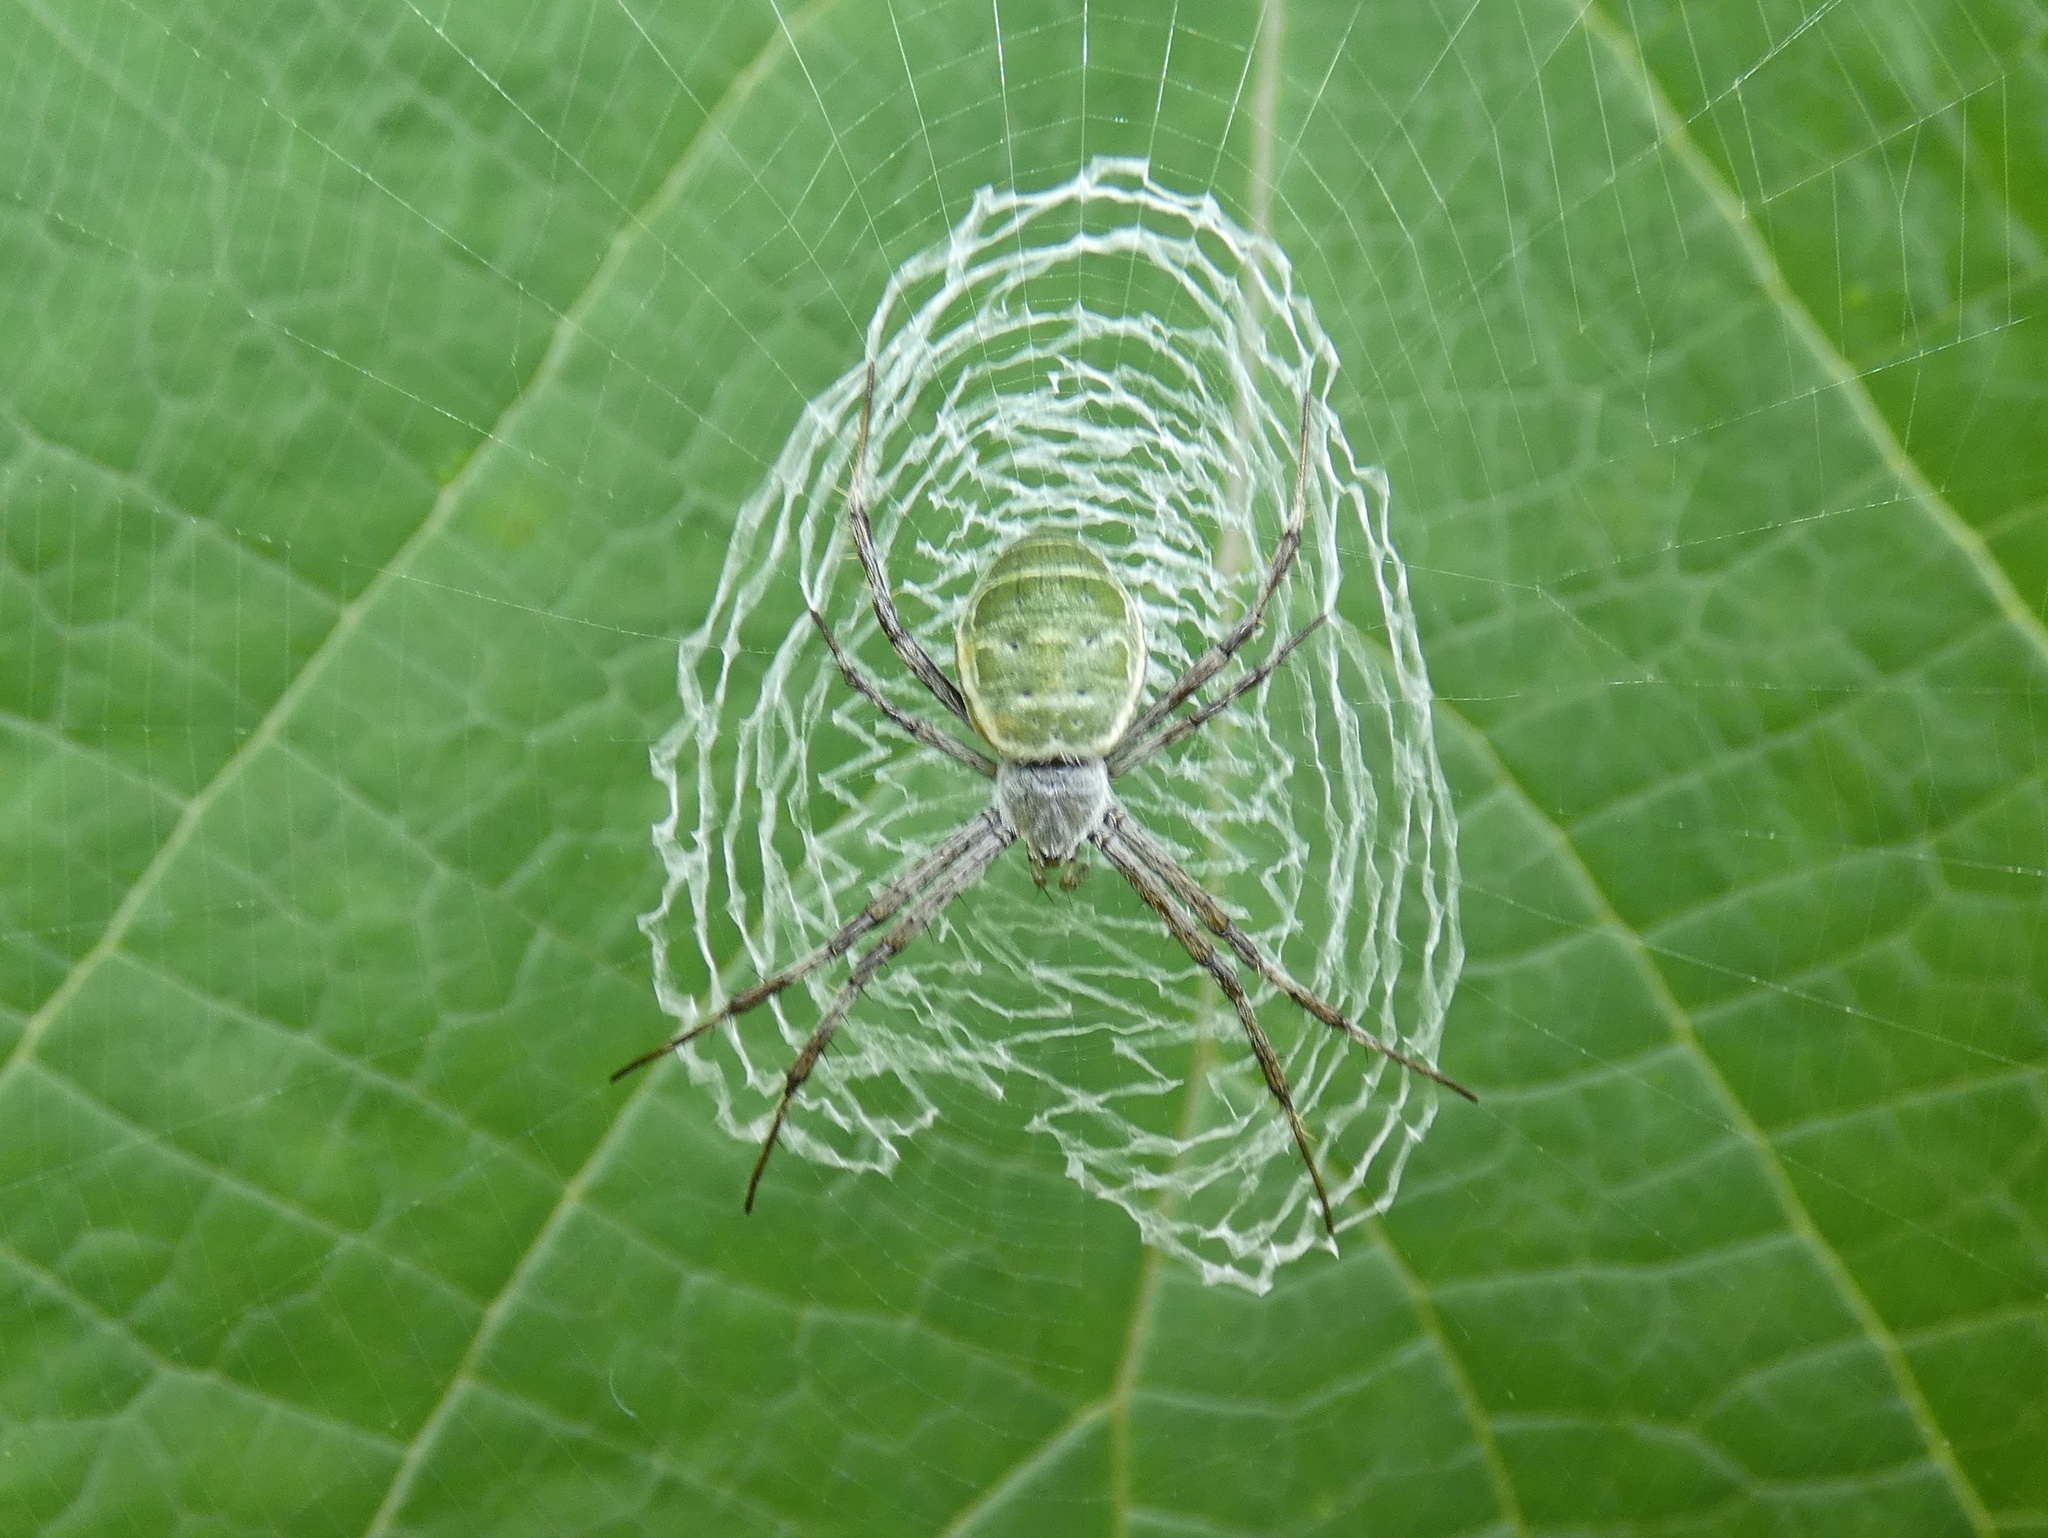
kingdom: Animalia
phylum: Arthropoda
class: Arachnida
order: Araneae
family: Araneidae
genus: Argiope
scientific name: Argiope chloreides
